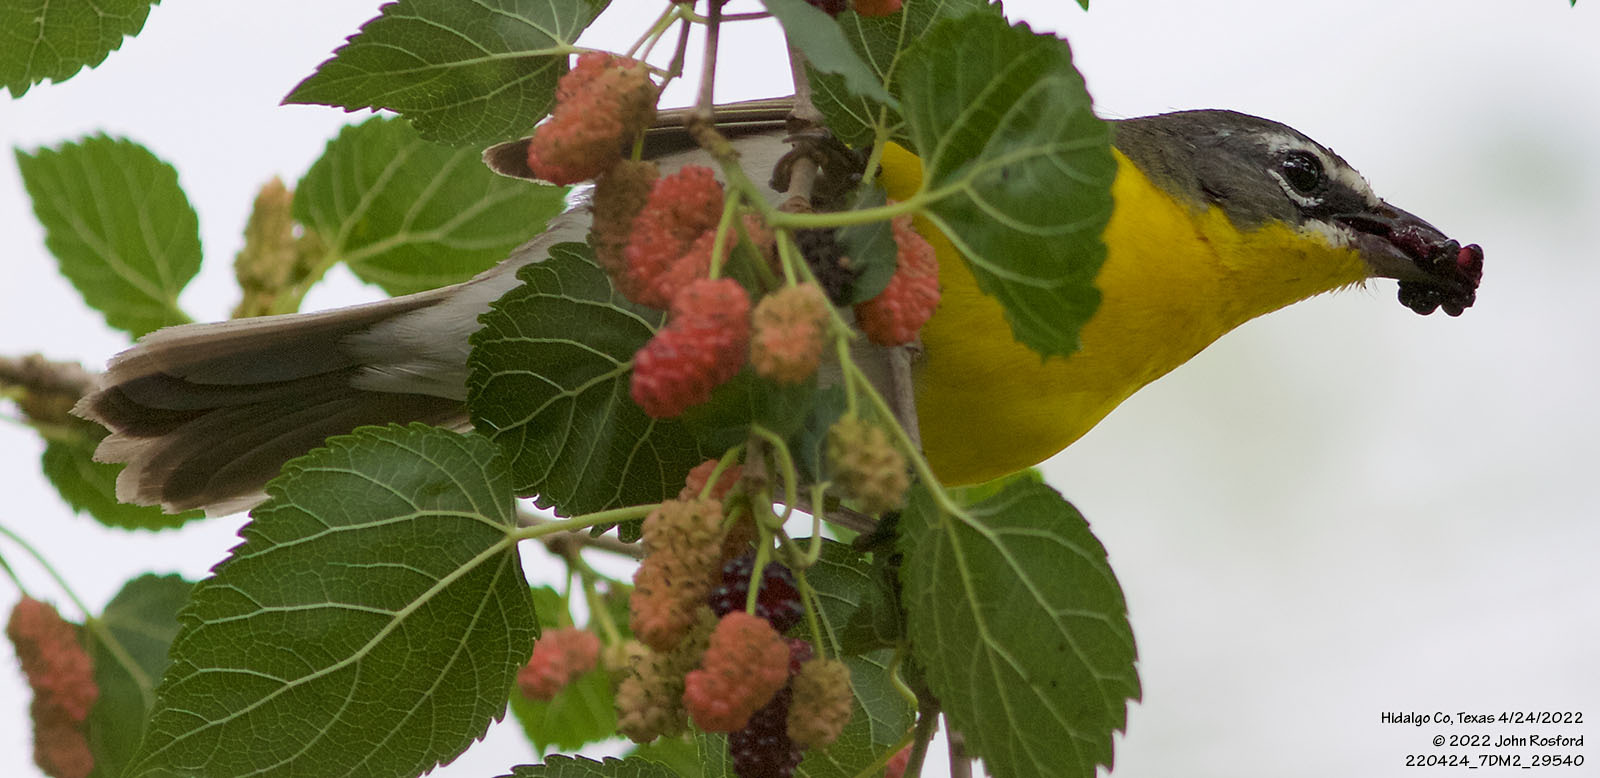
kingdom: Animalia
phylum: Chordata
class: Aves
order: Passeriformes
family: Parulidae
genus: Icteria
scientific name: Icteria virens
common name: Yellow-breasted chat
